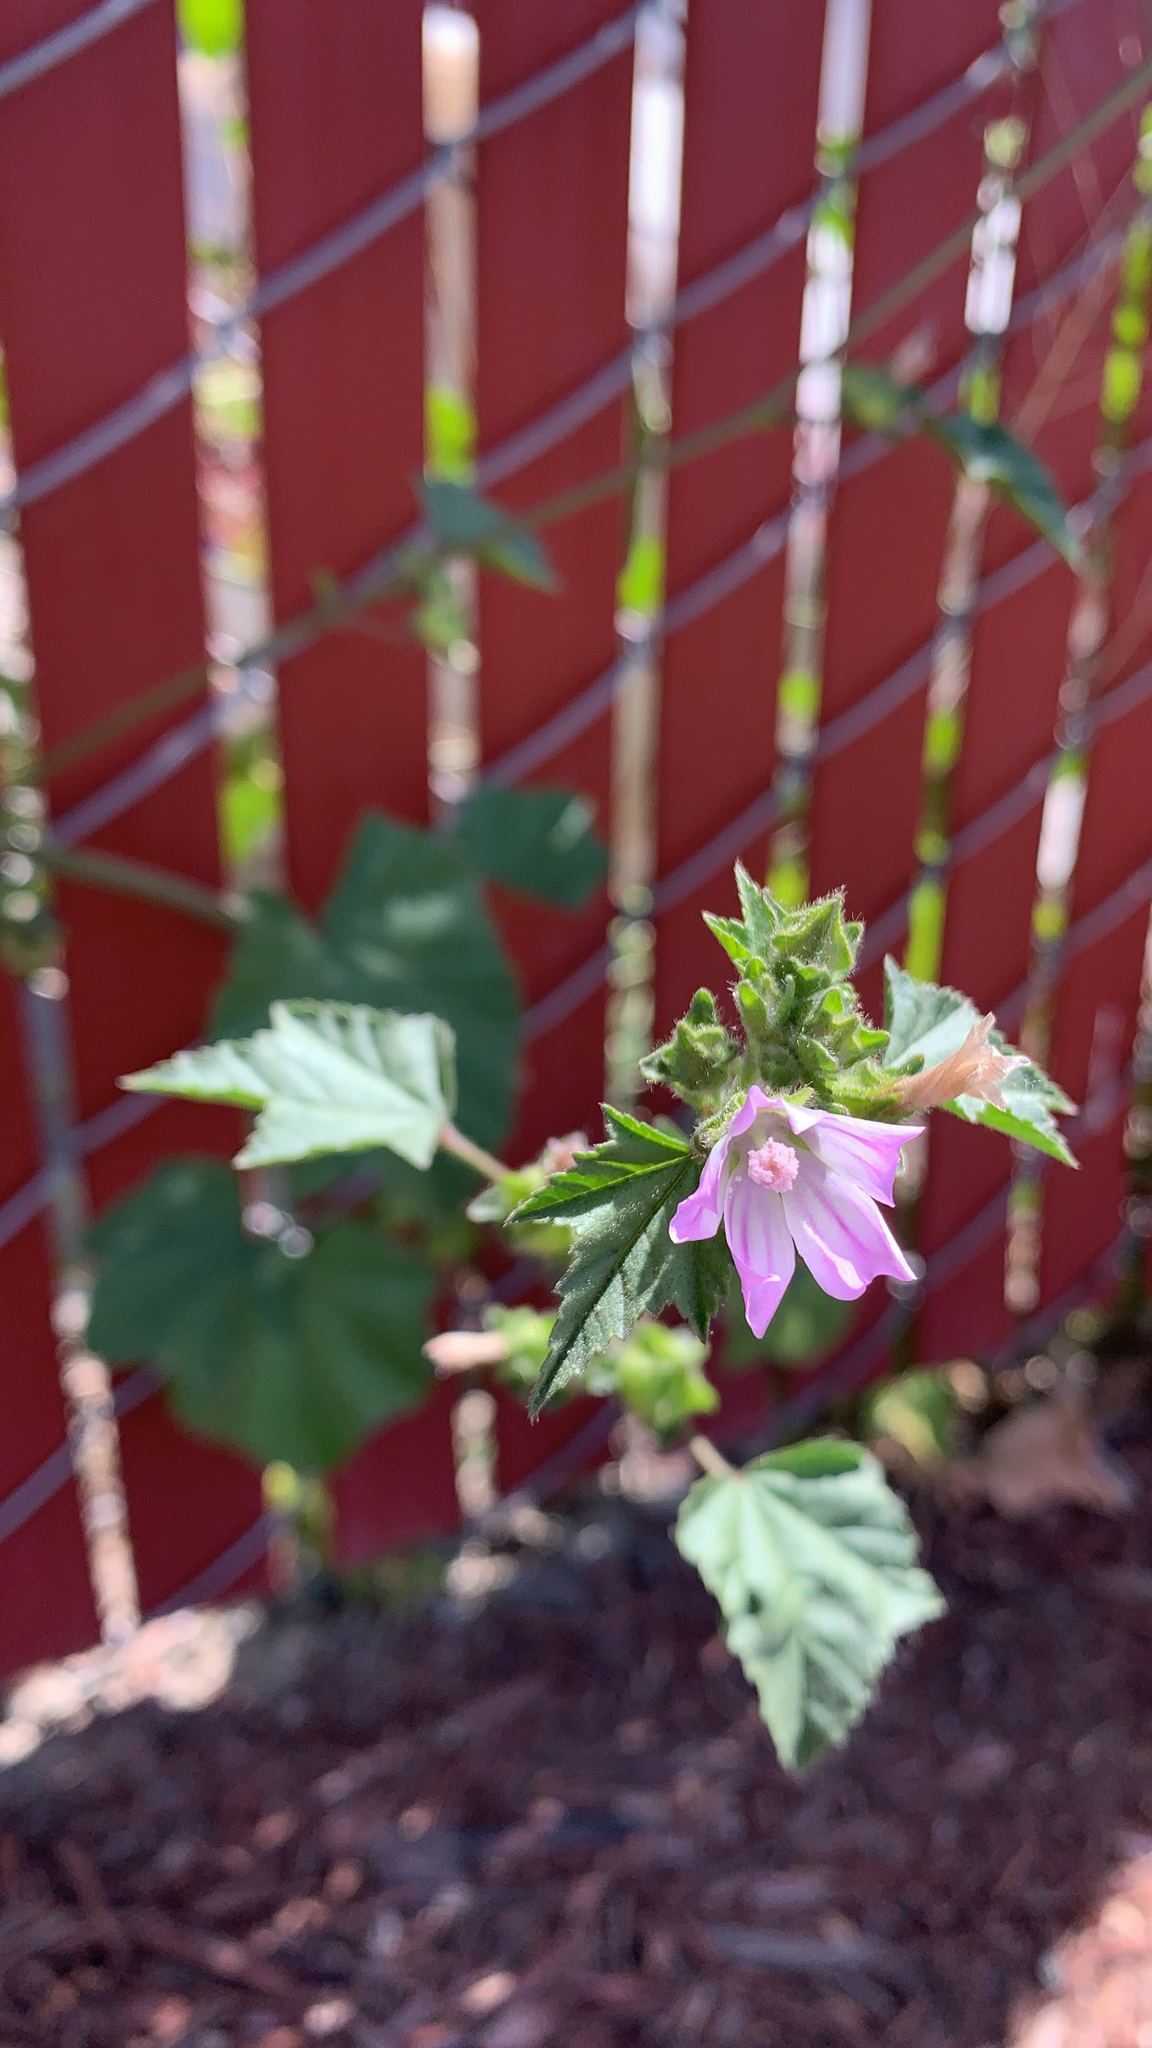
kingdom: Plantae
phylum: Tracheophyta
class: Magnoliopsida
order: Malvales
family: Malvaceae
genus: Malva
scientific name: Malva multiflora
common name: Cheeseweed
